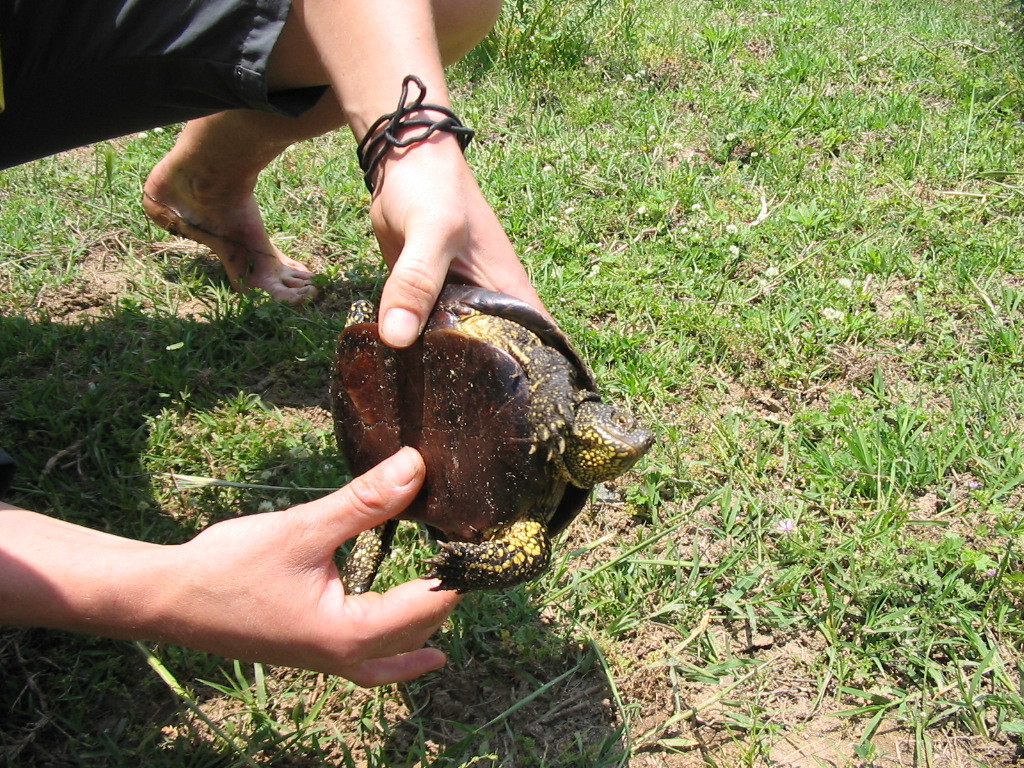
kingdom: Animalia
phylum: Chordata
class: Testudines
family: Emydidae
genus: Emys
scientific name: Emys orbicularis
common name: European pond turtle
